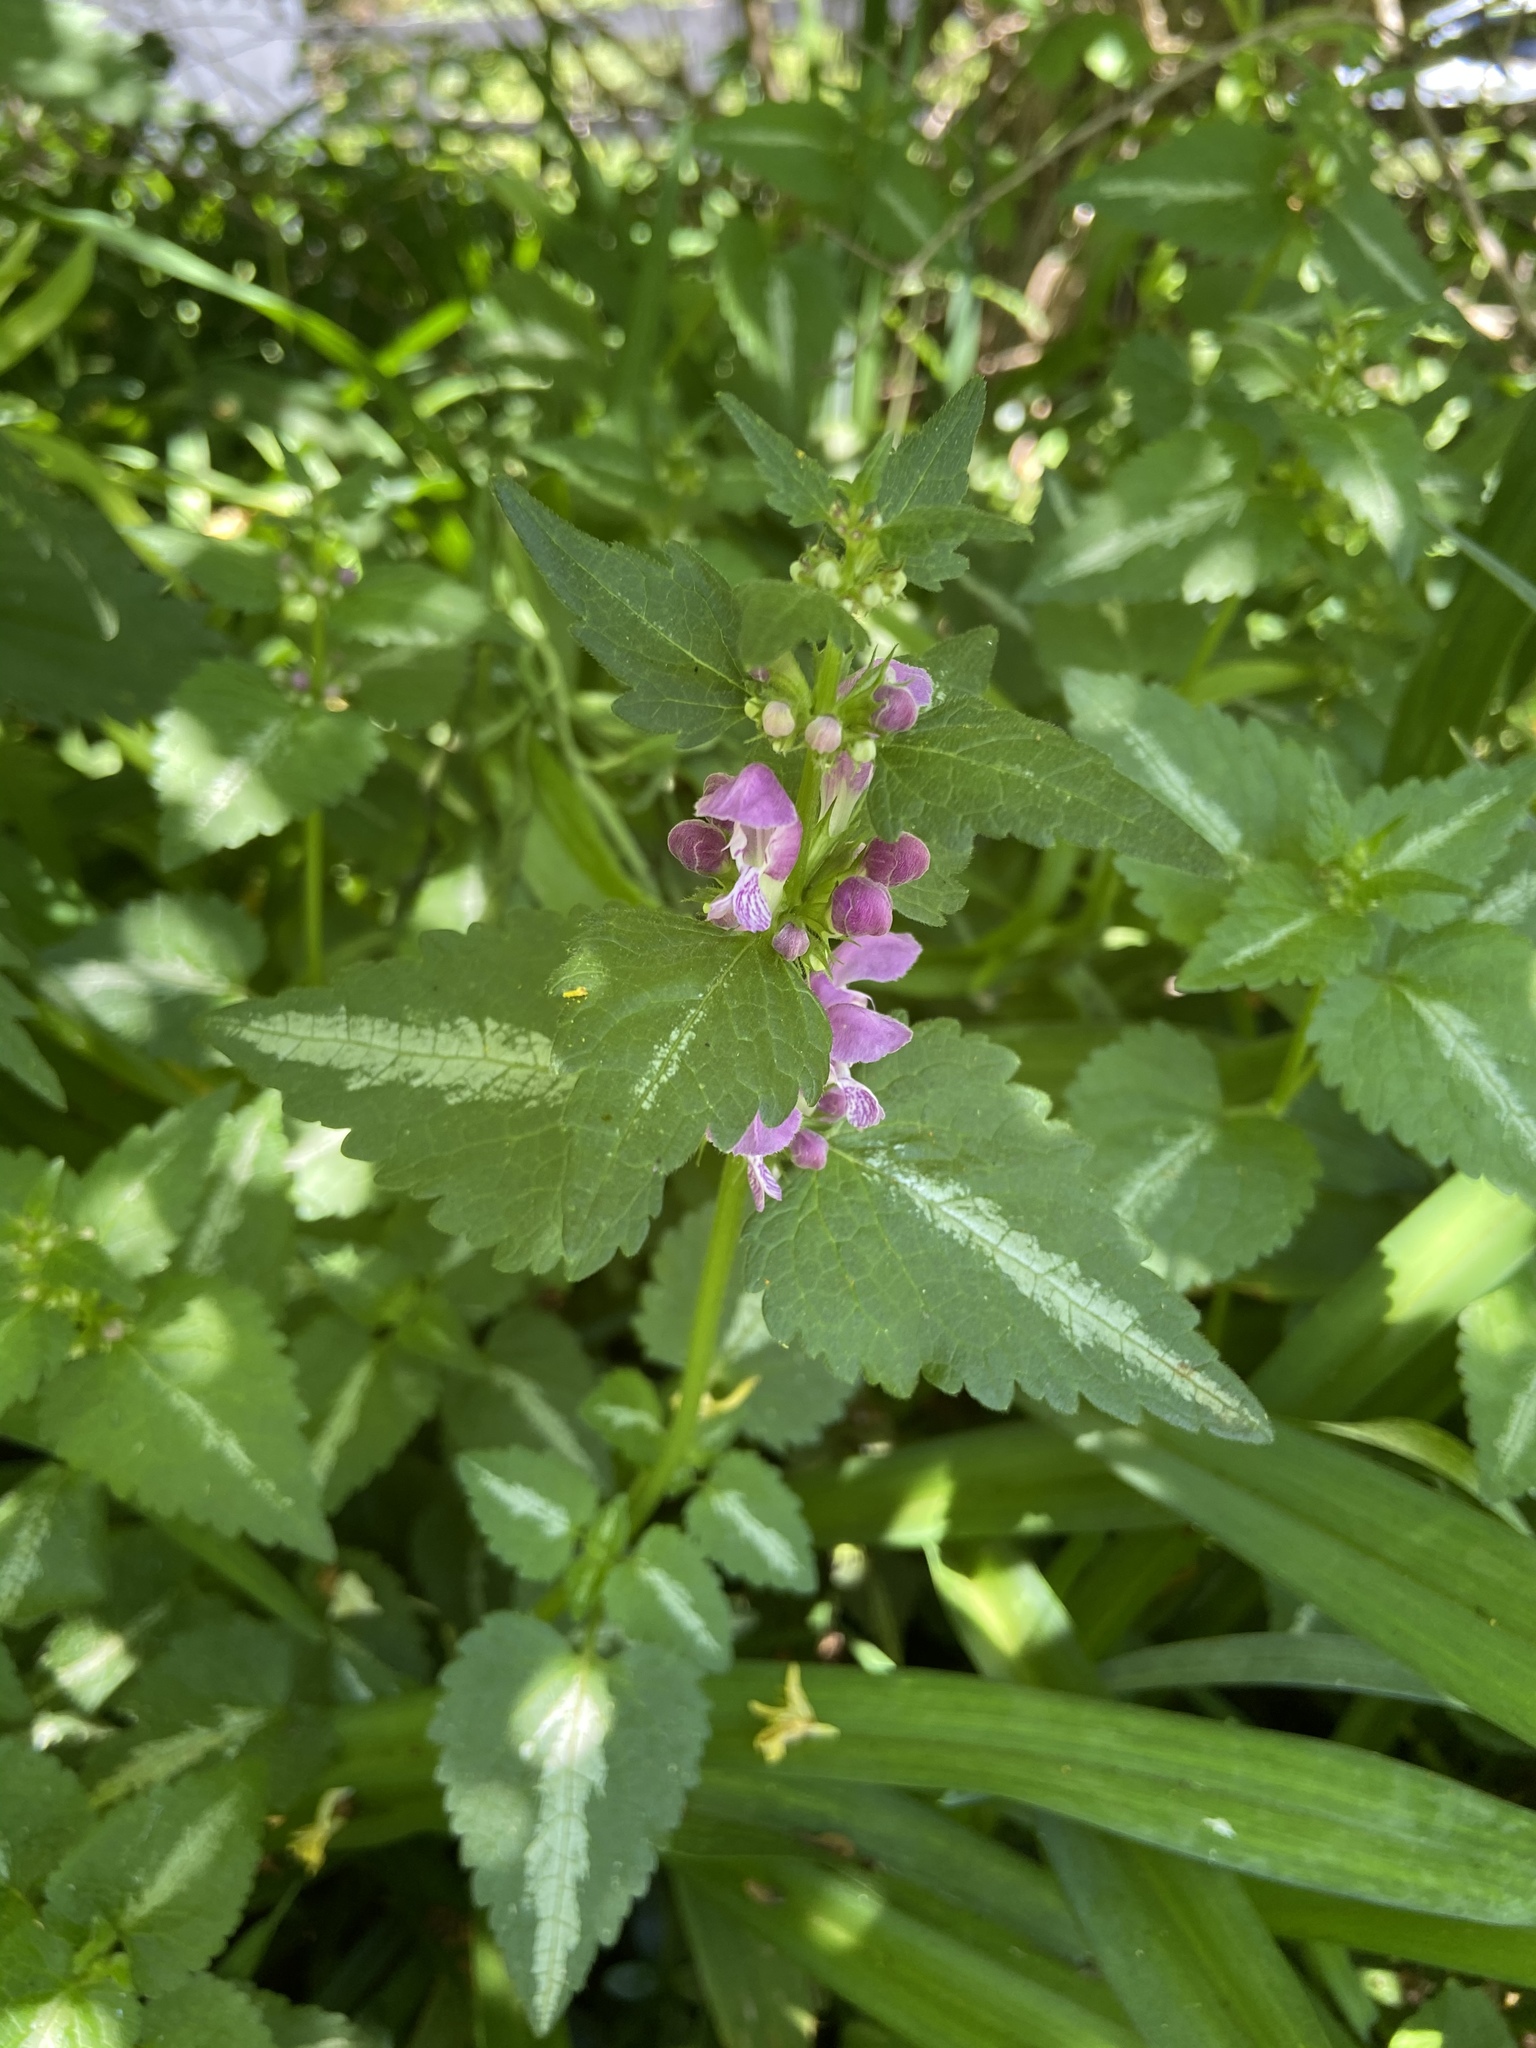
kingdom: Plantae
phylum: Tracheophyta
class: Magnoliopsida
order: Lamiales
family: Lamiaceae
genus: Lamium
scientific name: Lamium maculatum
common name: Spotted dead-nettle
